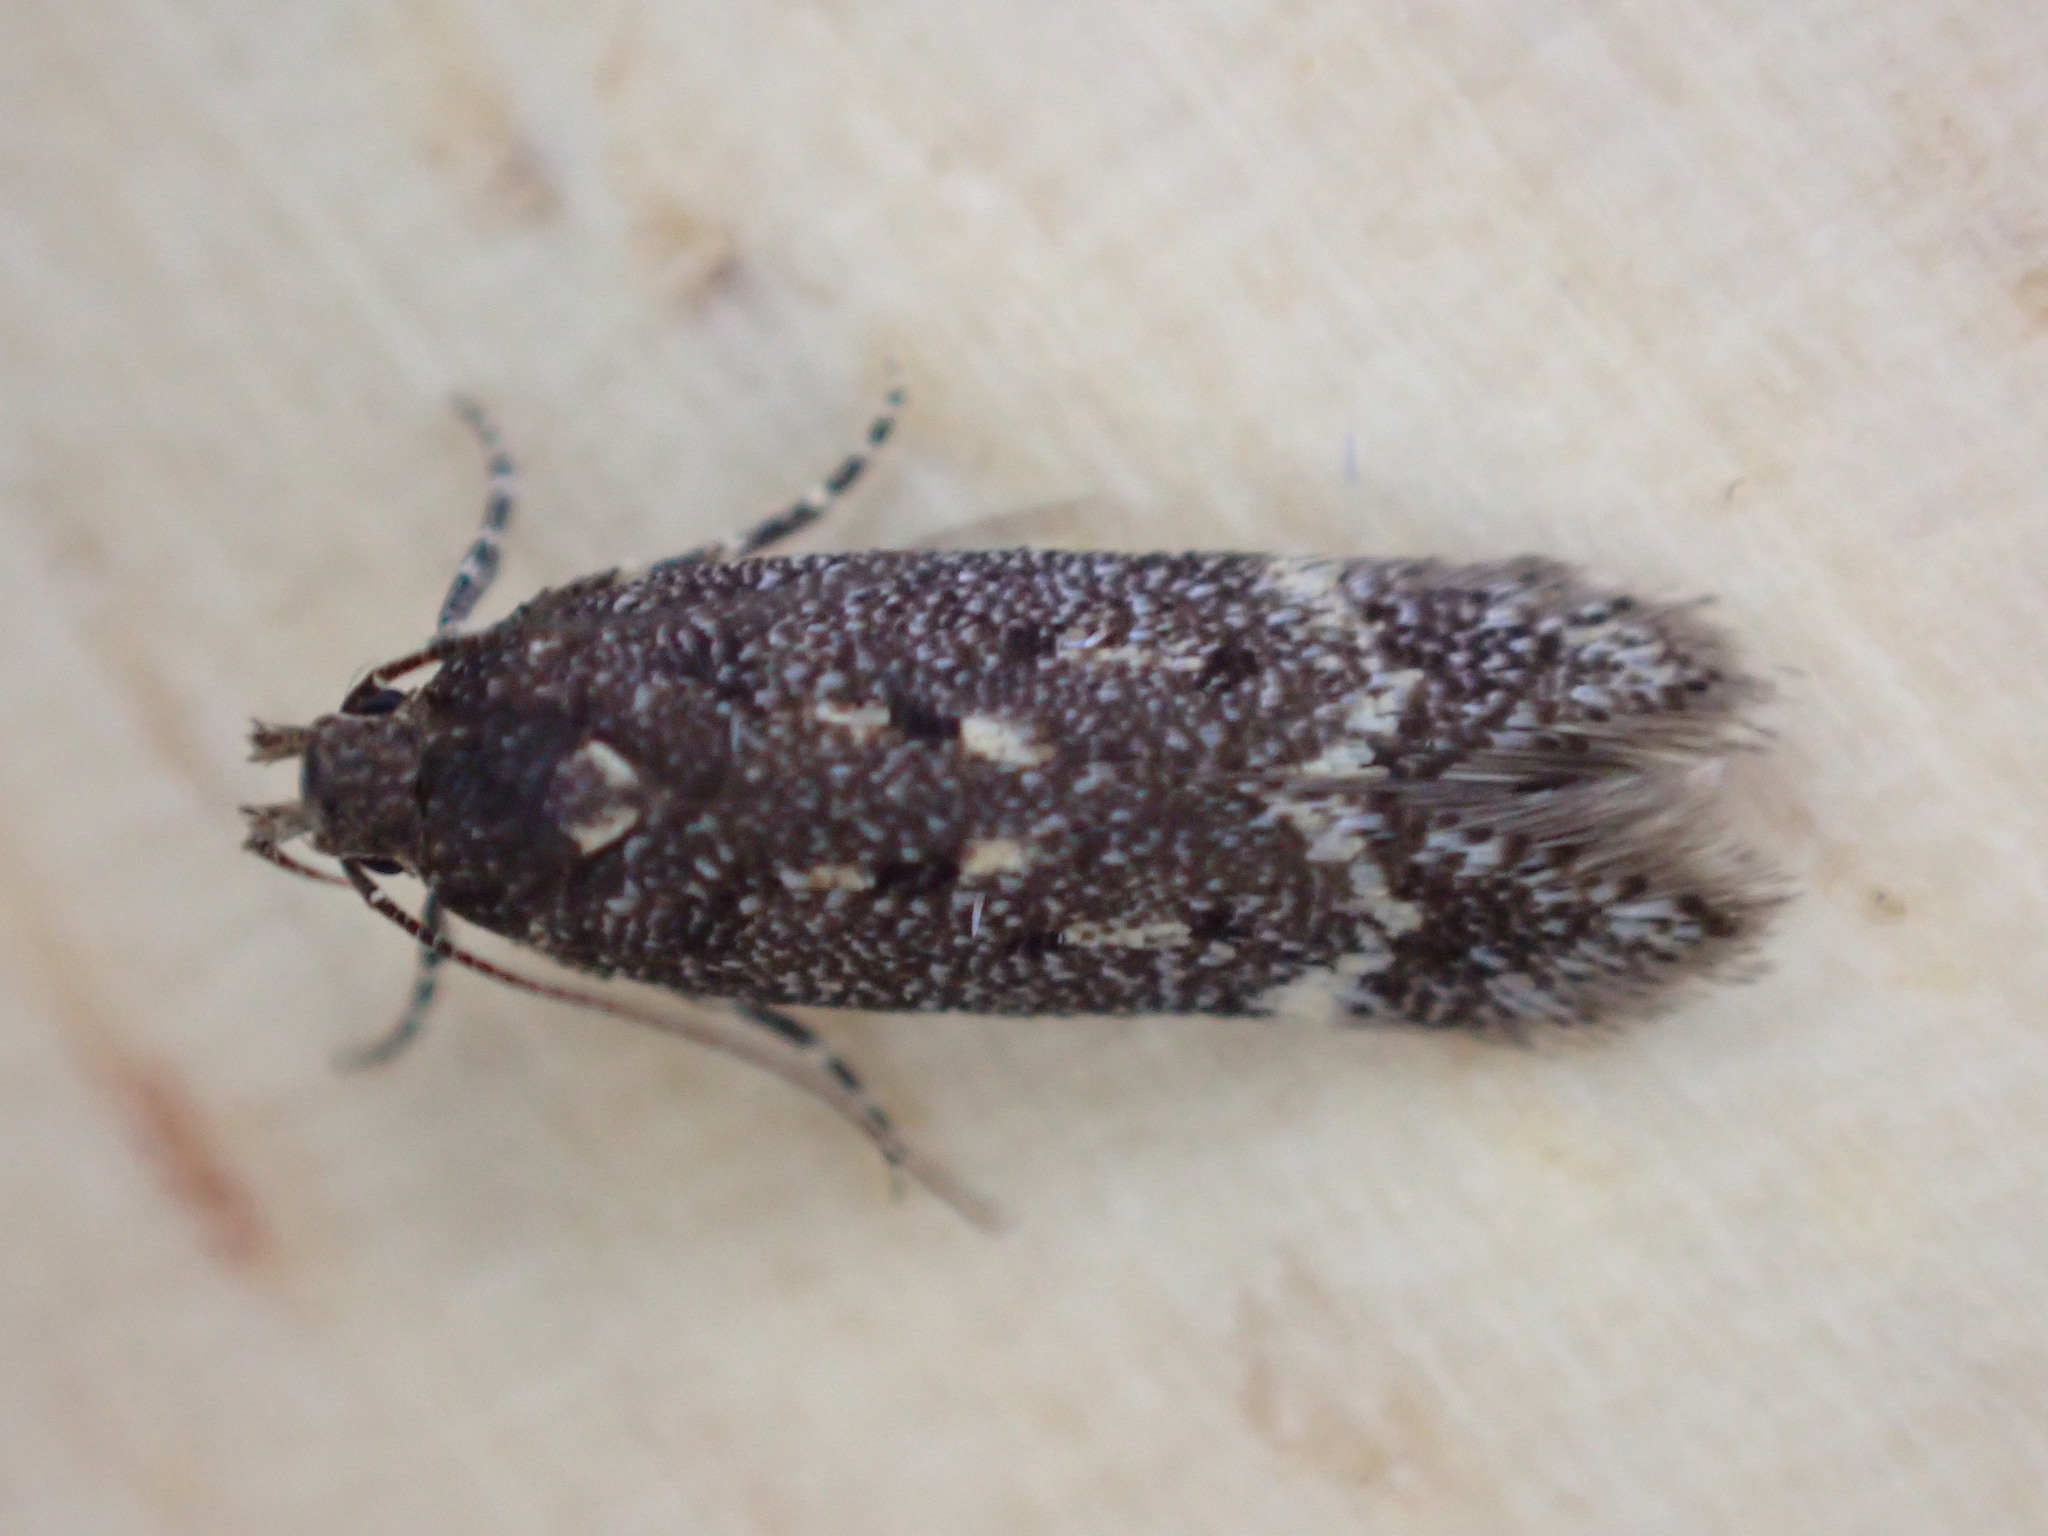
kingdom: Animalia
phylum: Arthropoda
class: Insecta
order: Lepidoptera
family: Gelechiidae
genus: Bryotropha
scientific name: Bryotropha affinis
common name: Dark groundling
